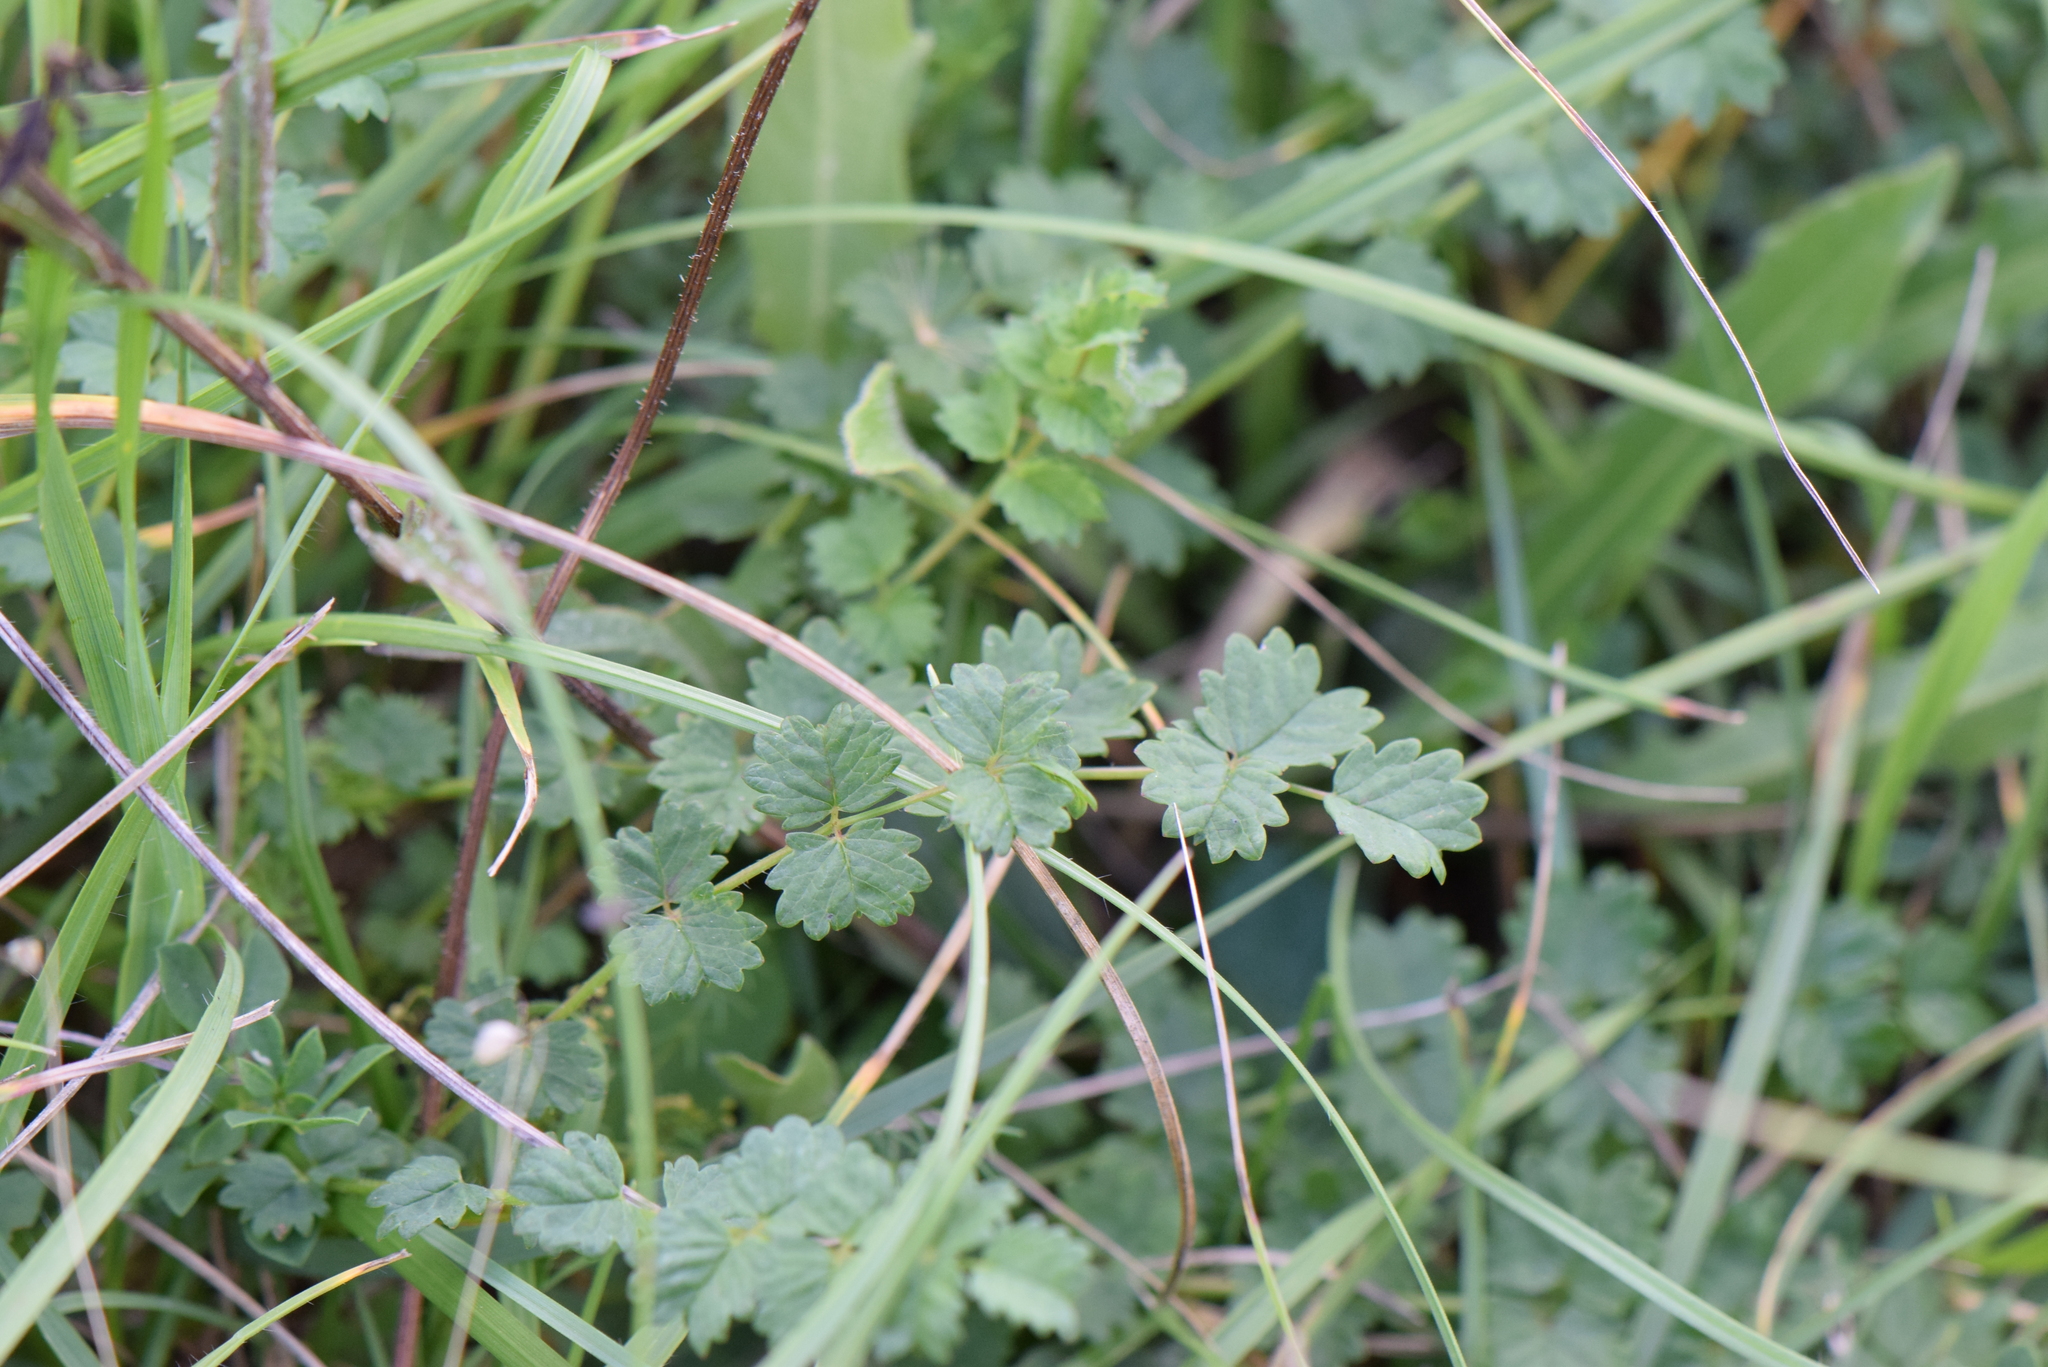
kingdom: Plantae
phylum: Tracheophyta
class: Magnoliopsida
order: Rosales
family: Rosaceae
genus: Poterium
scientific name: Poterium sanguisorba
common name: Salad burnet
